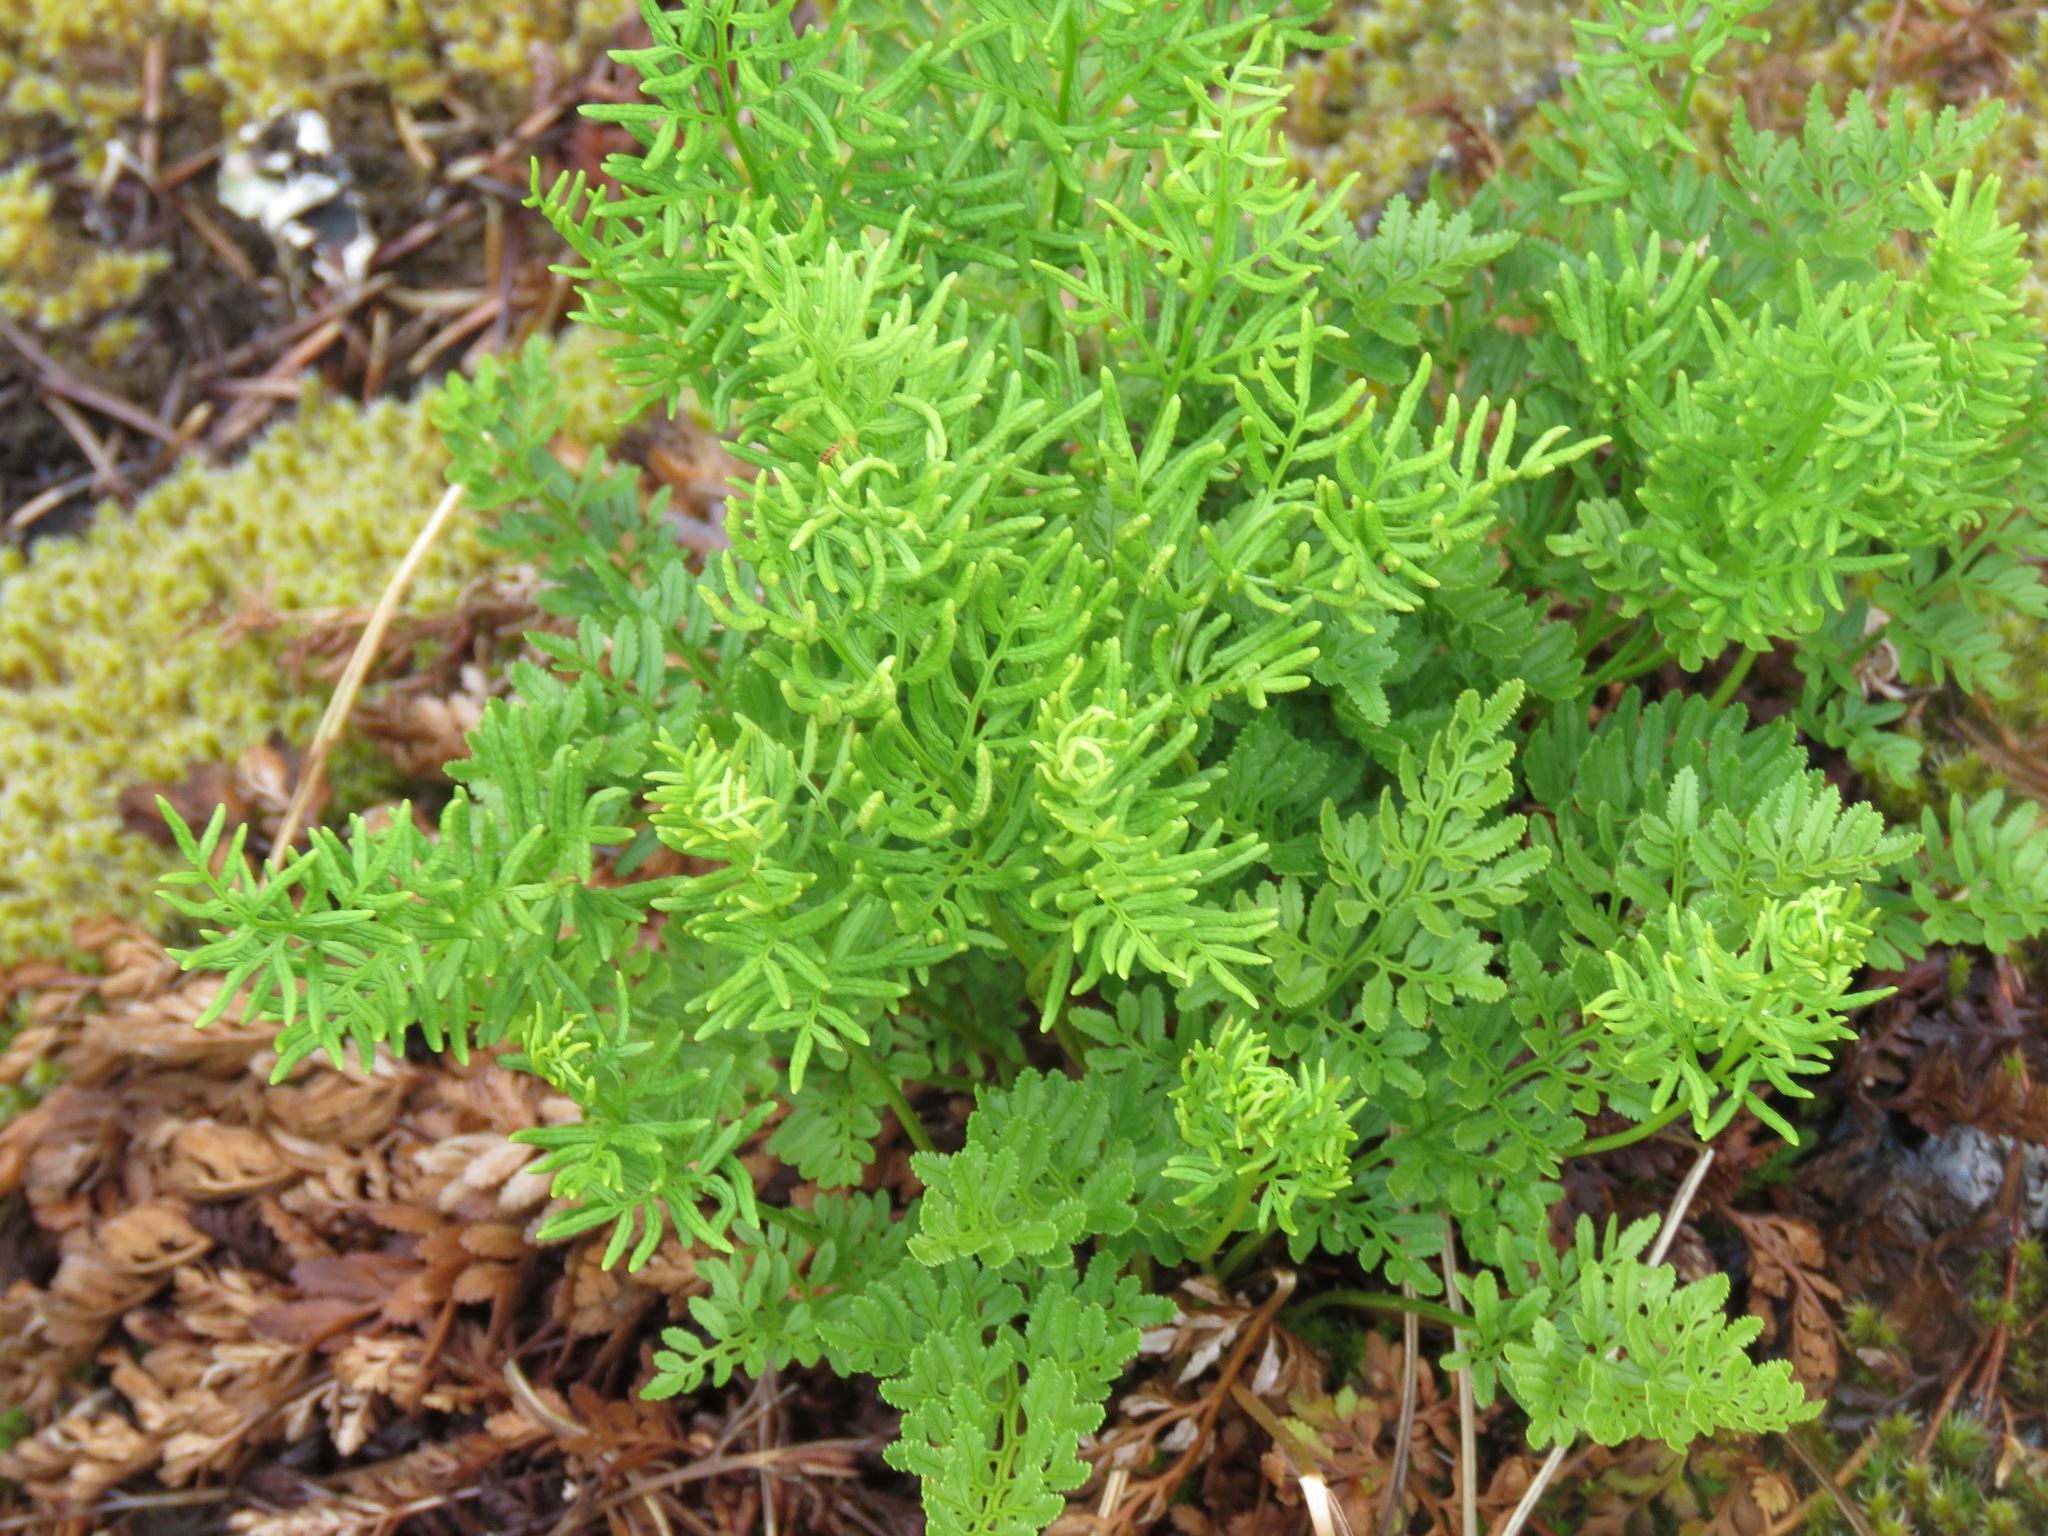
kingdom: Plantae
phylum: Tracheophyta
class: Polypodiopsida
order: Polypodiales
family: Pteridaceae
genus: Cryptogramma
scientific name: Cryptogramma acrostichoides
